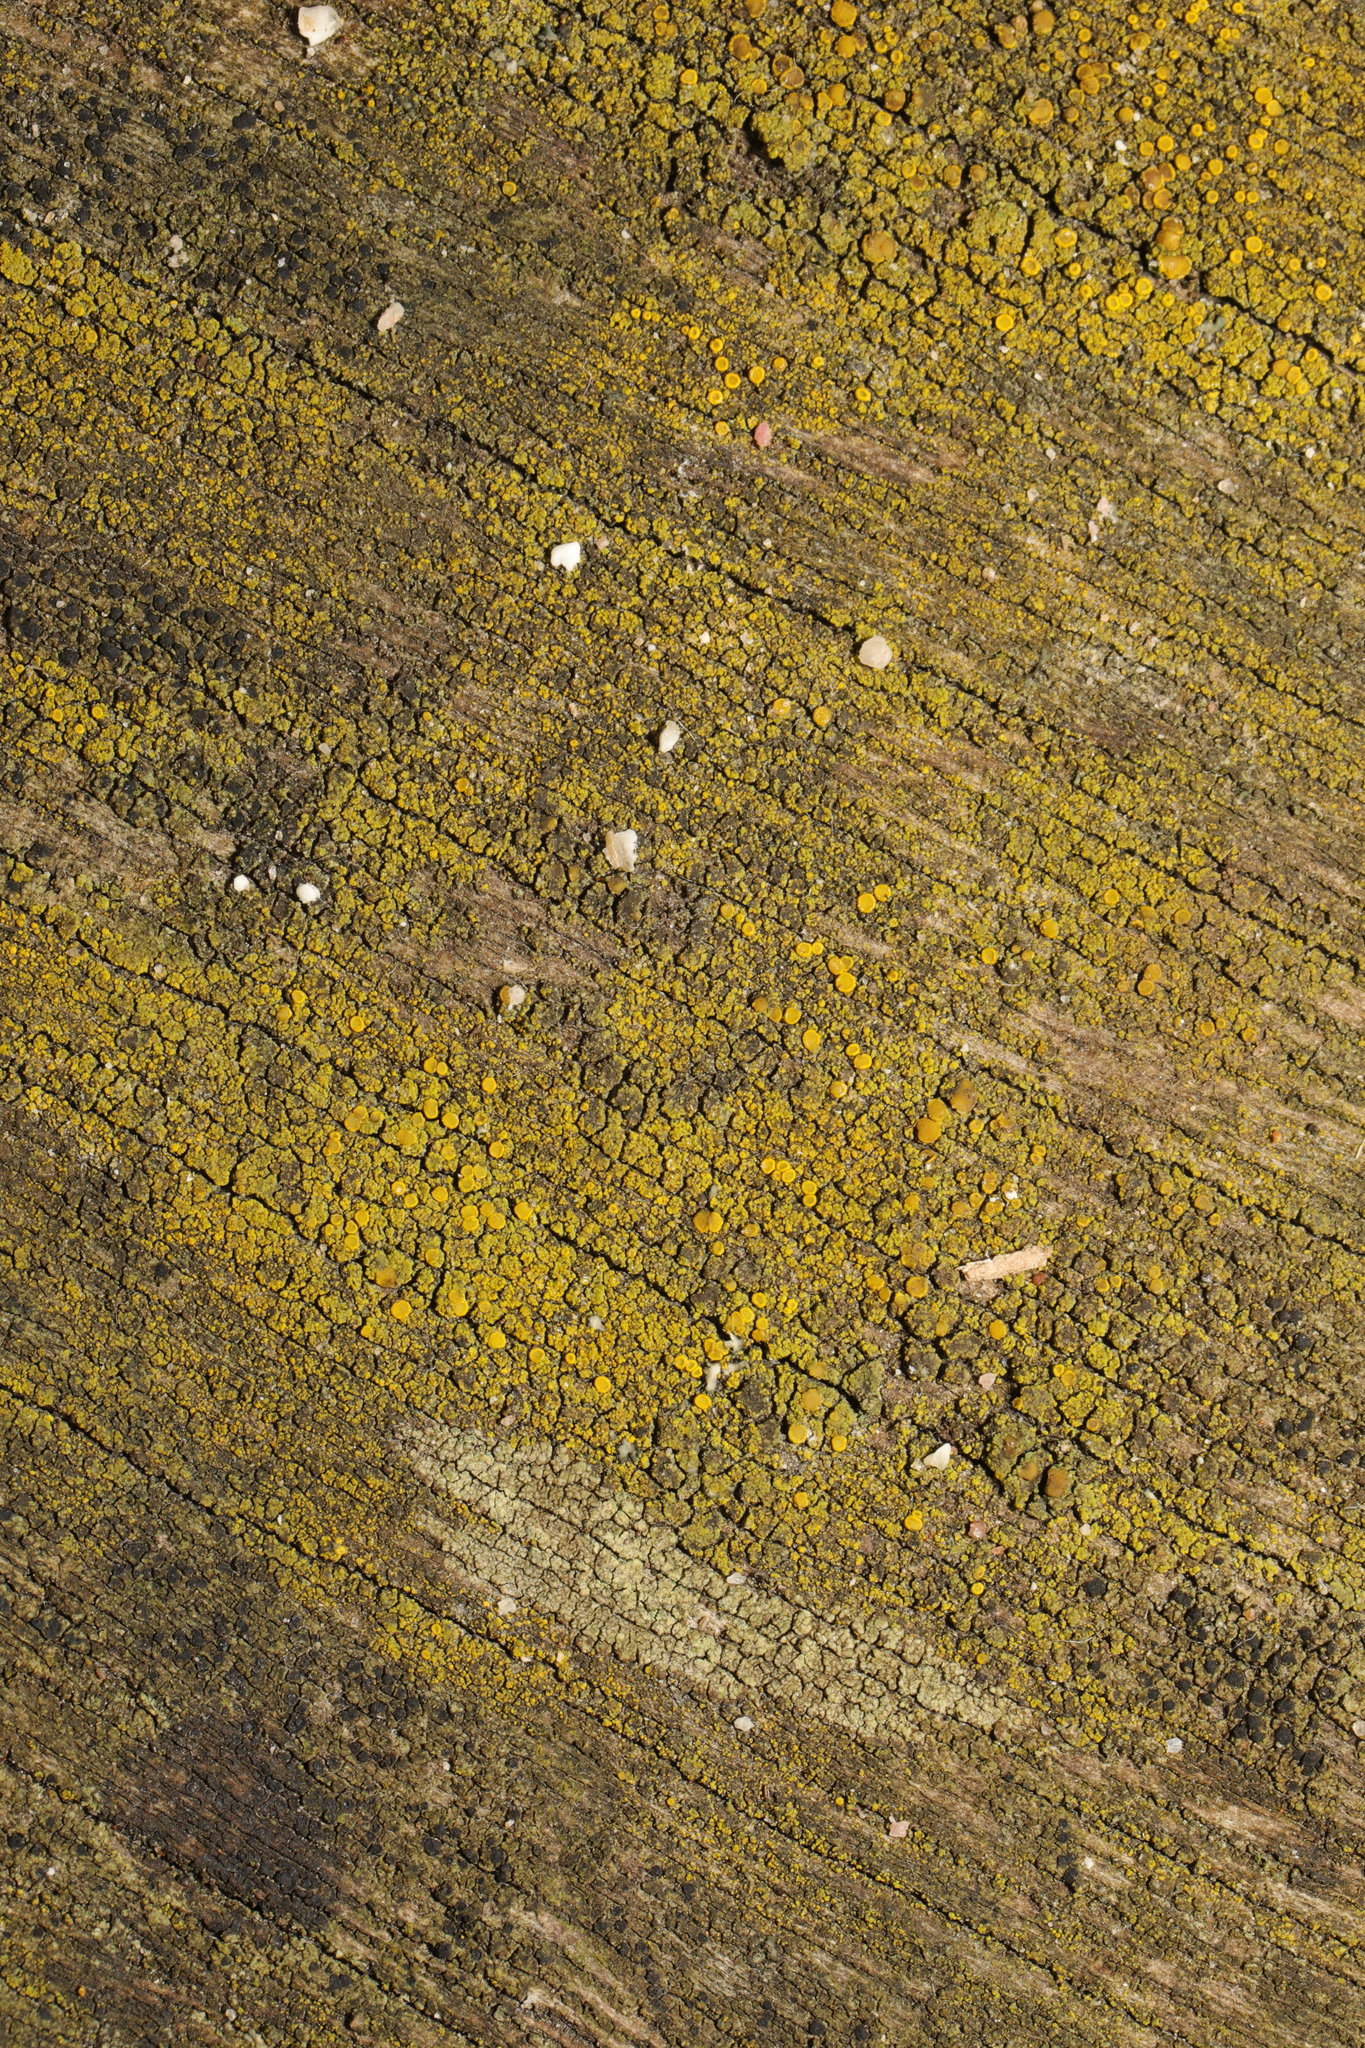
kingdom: Fungi
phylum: Ascomycota
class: Candelariomycetes
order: Candelariales
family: Candelariaceae
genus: Candelariella
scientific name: Candelariella vitellina
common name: Common goldspeck
